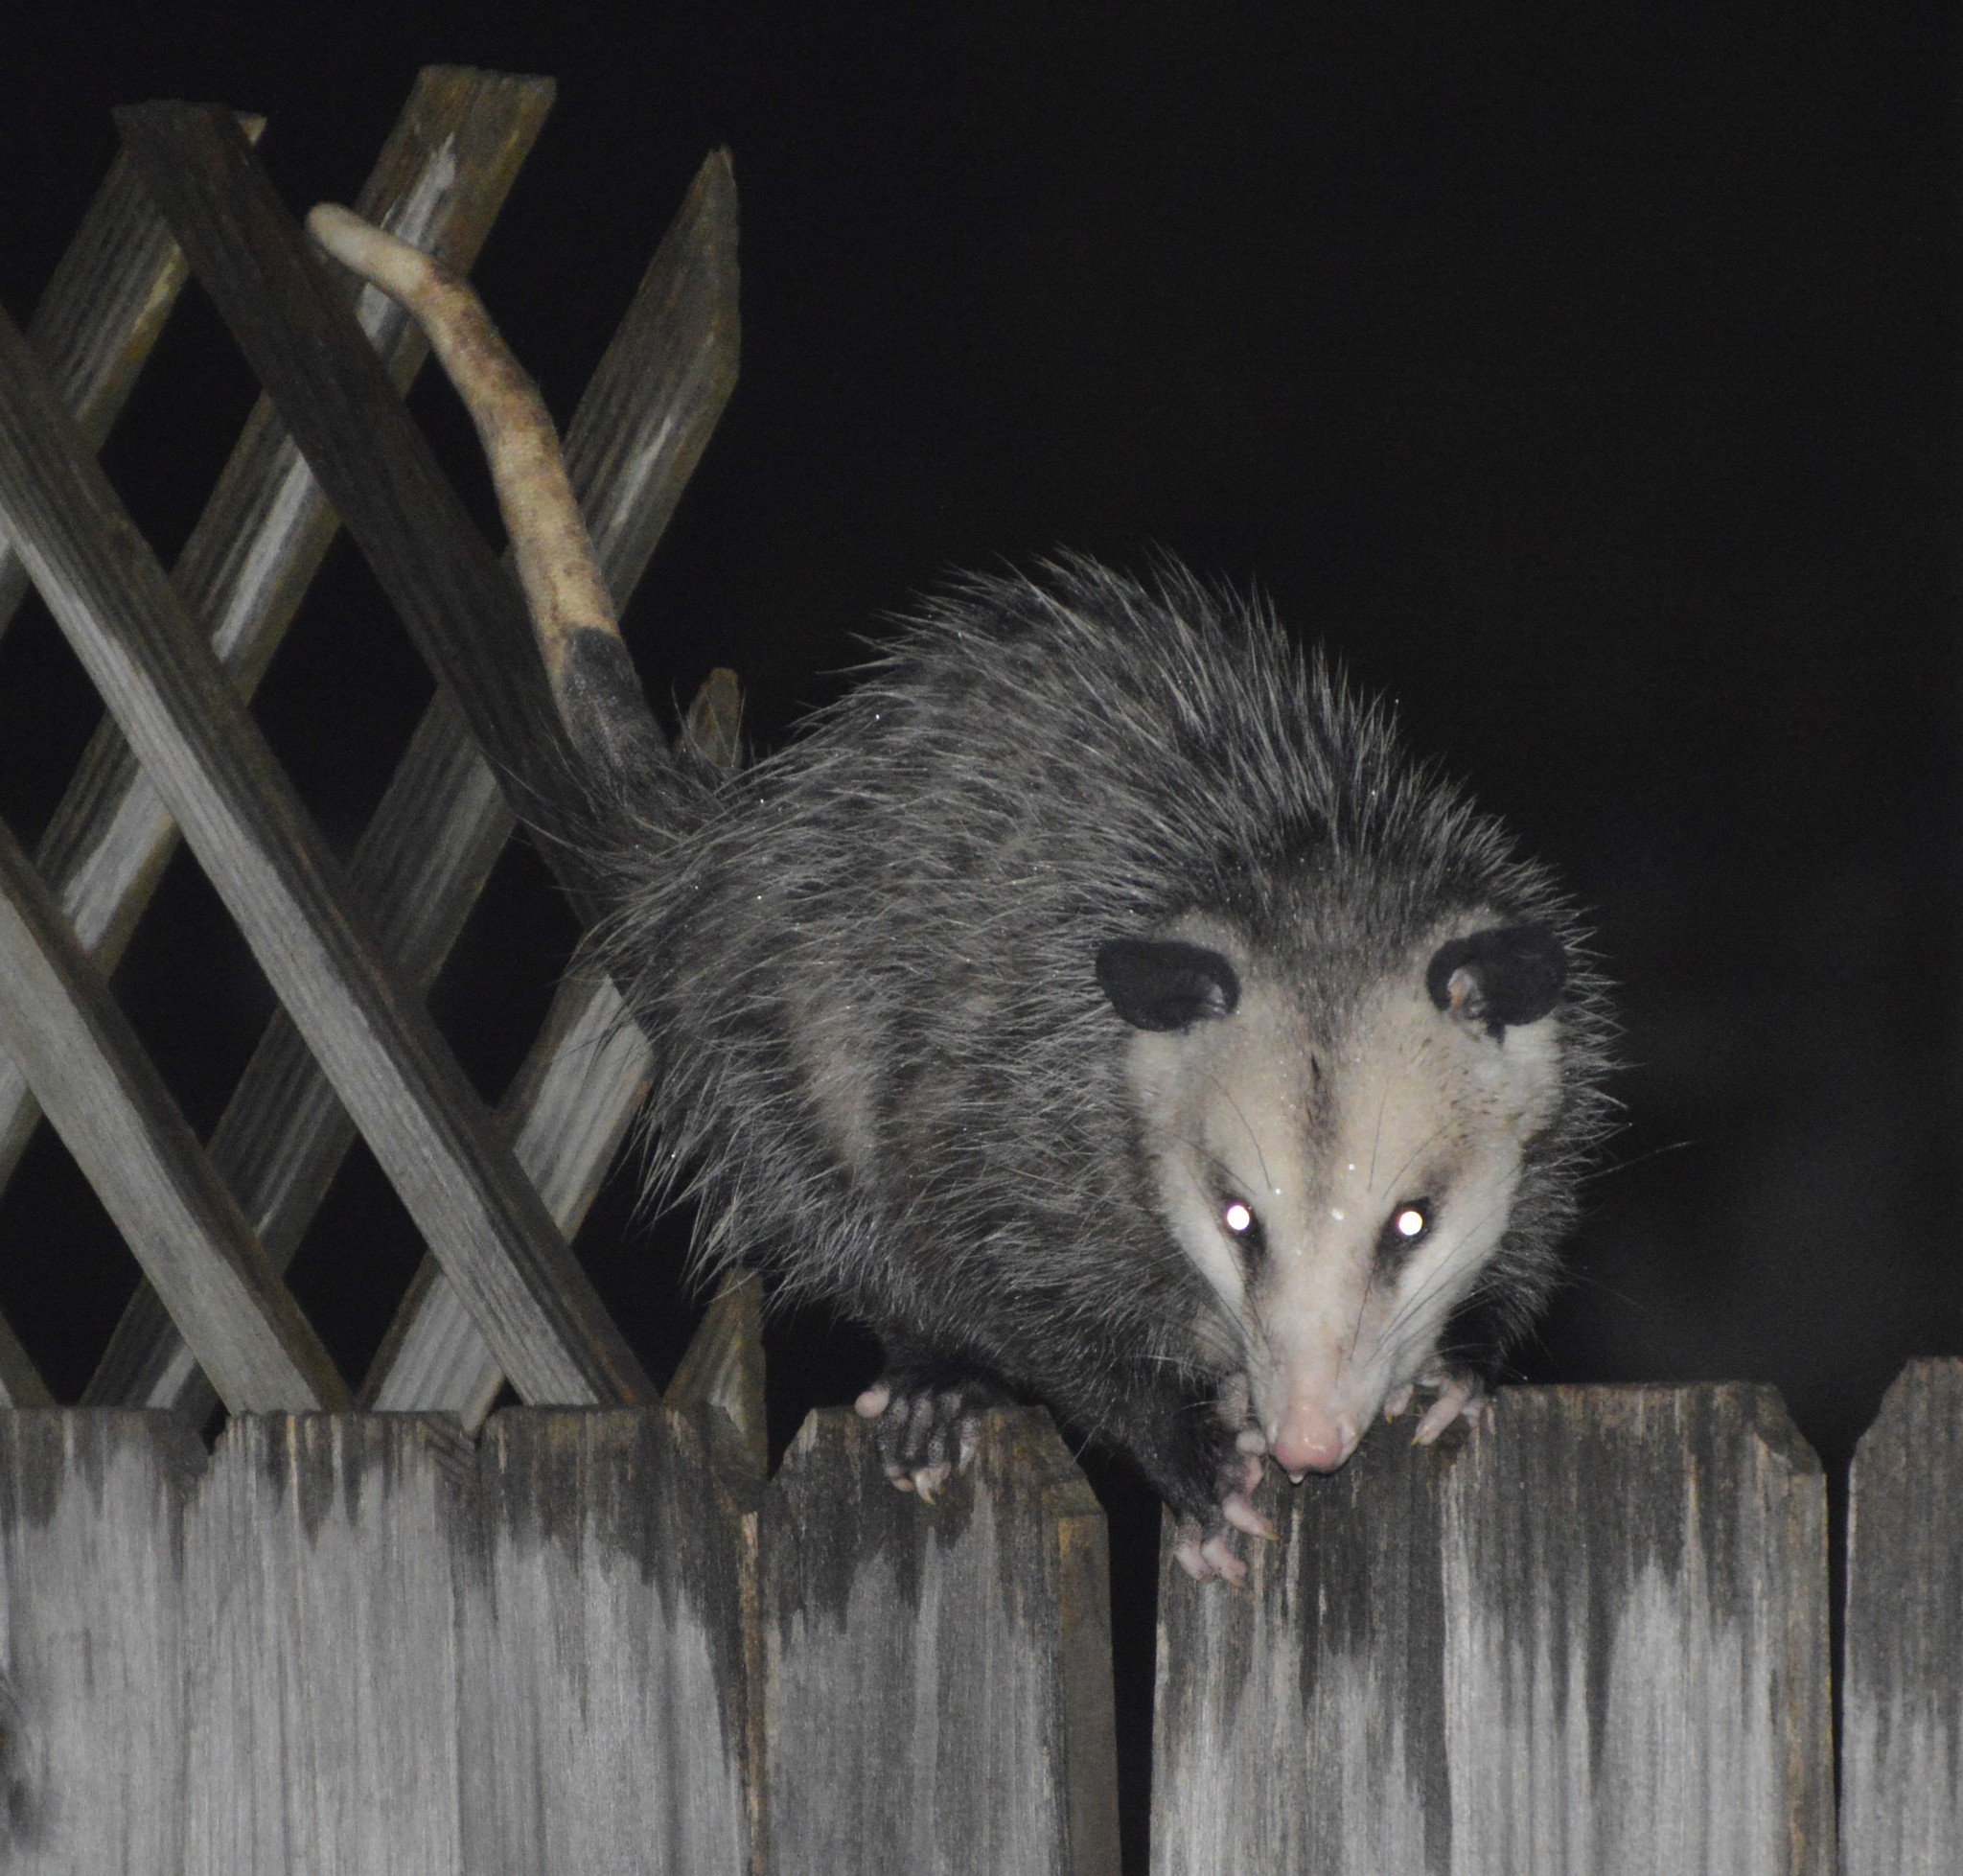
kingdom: Animalia
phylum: Chordata
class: Mammalia
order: Didelphimorphia
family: Didelphidae
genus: Didelphis
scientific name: Didelphis virginiana
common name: Virginia opossum
